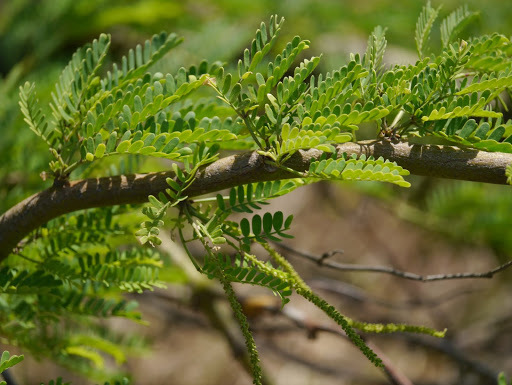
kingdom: Plantae
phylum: Tracheophyta
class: Magnoliopsida
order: Fabales
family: Fabaceae
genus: Prosopis
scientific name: Prosopis pallida
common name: Mesquite
